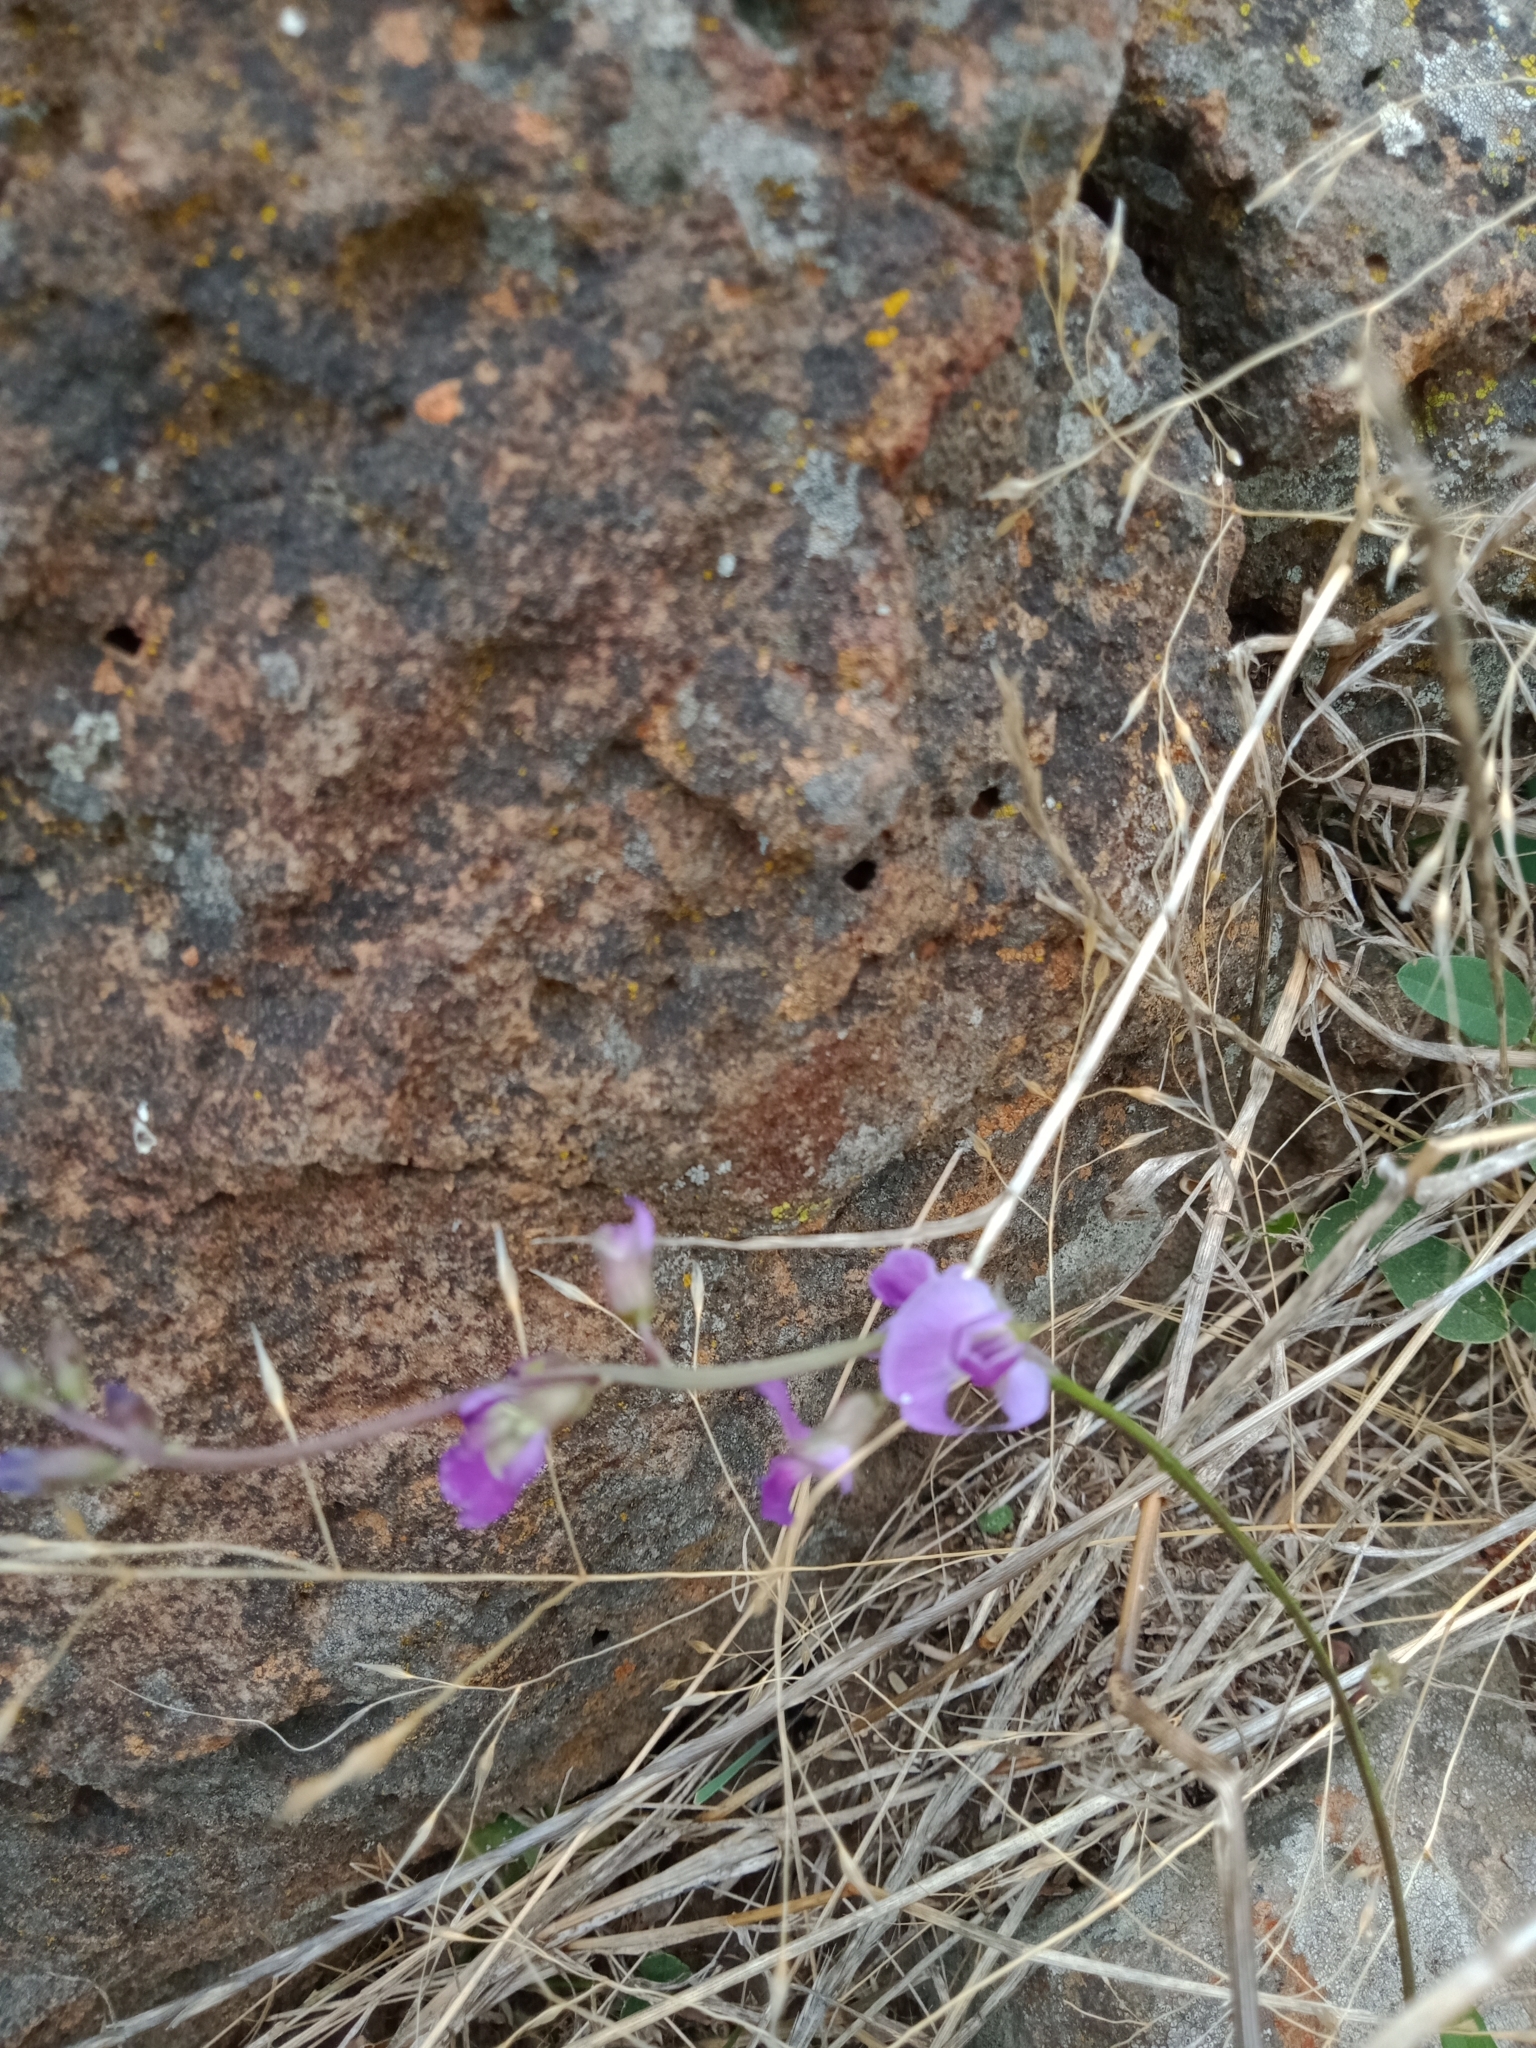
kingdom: Plantae
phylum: Tracheophyta
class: Magnoliopsida
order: Fabales
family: Fabaceae
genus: Glycine
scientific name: Glycine tabacina
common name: Pea glycine
